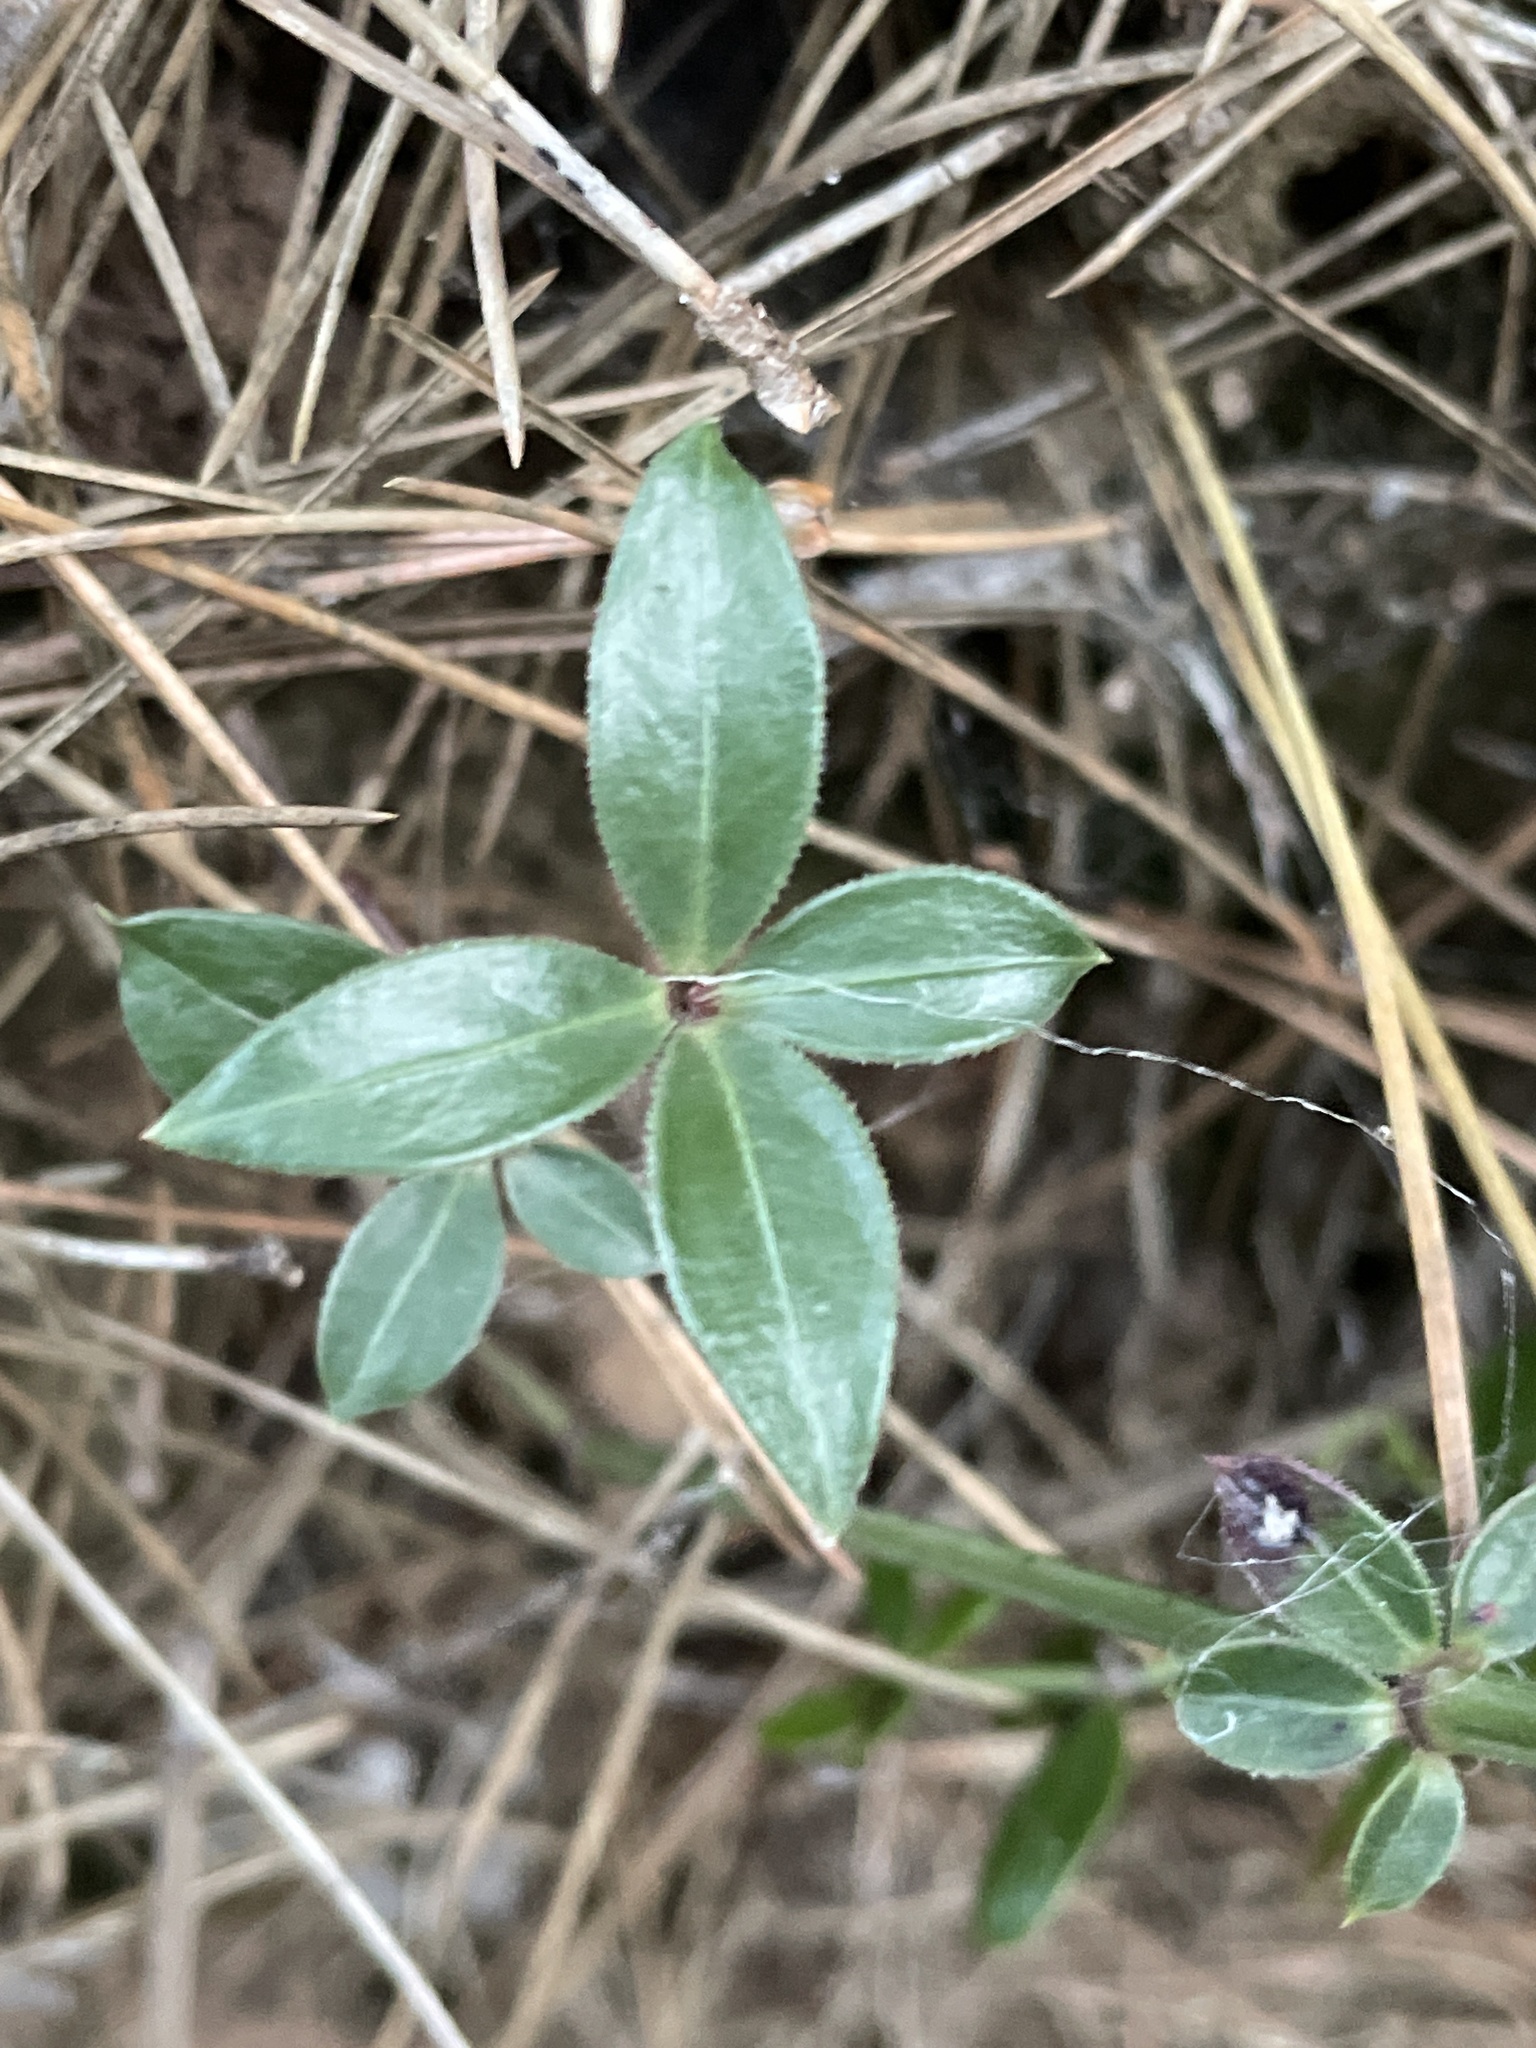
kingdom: Plantae
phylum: Tracheophyta
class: Magnoliopsida
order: Gentianales
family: Rubiaceae
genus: Rubia
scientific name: Rubia peregrina
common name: Wild madder
